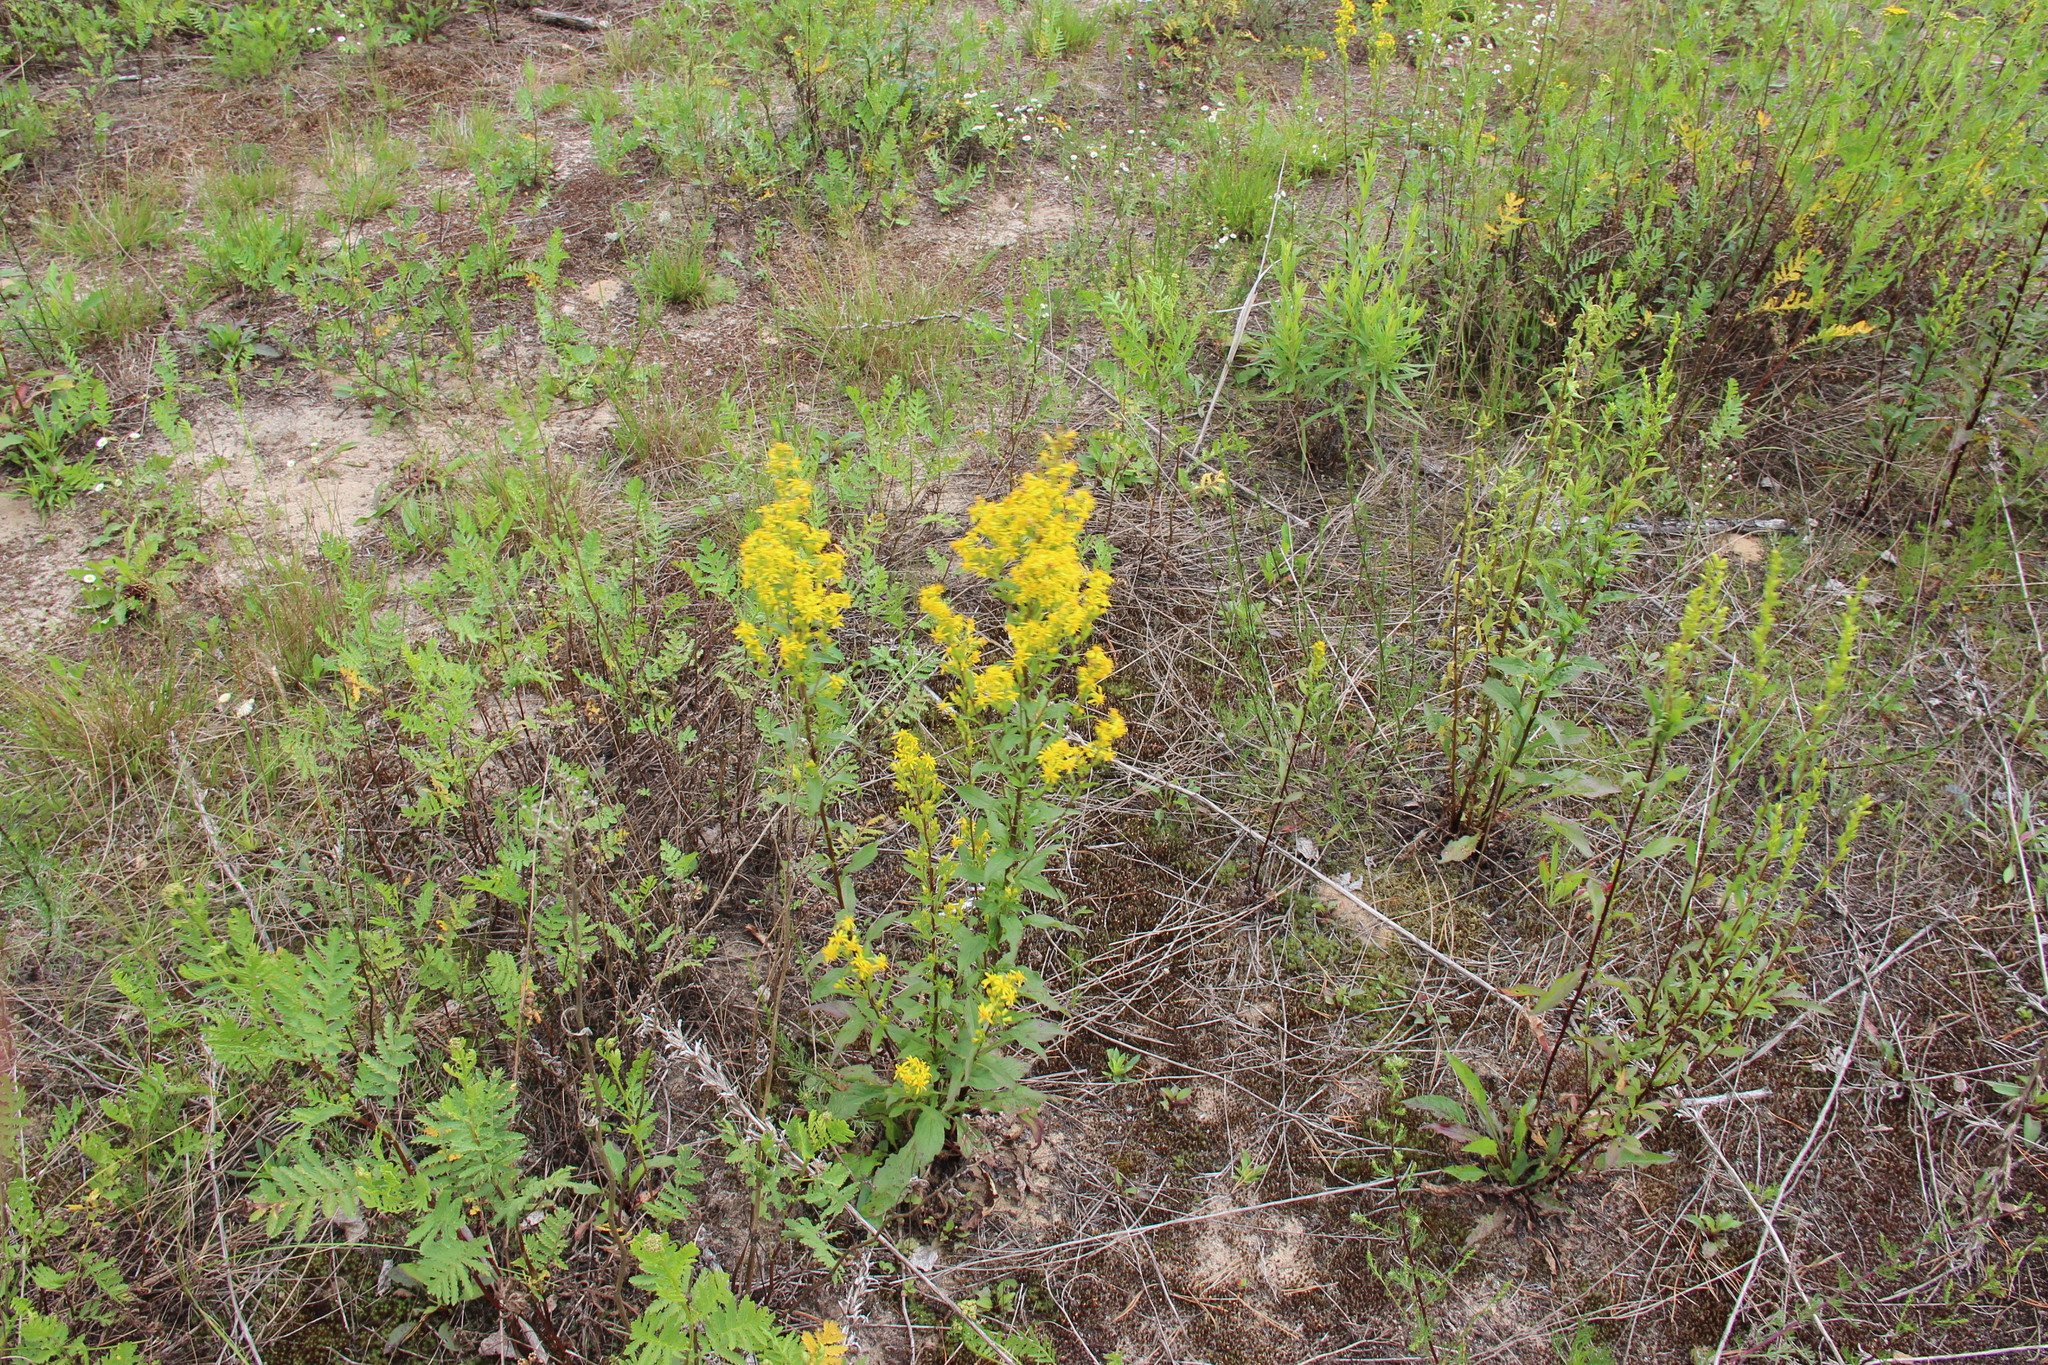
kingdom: Plantae
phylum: Tracheophyta
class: Magnoliopsida
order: Asterales
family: Asteraceae
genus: Solidago
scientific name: Solidago virgaurea
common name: Goldenrod
